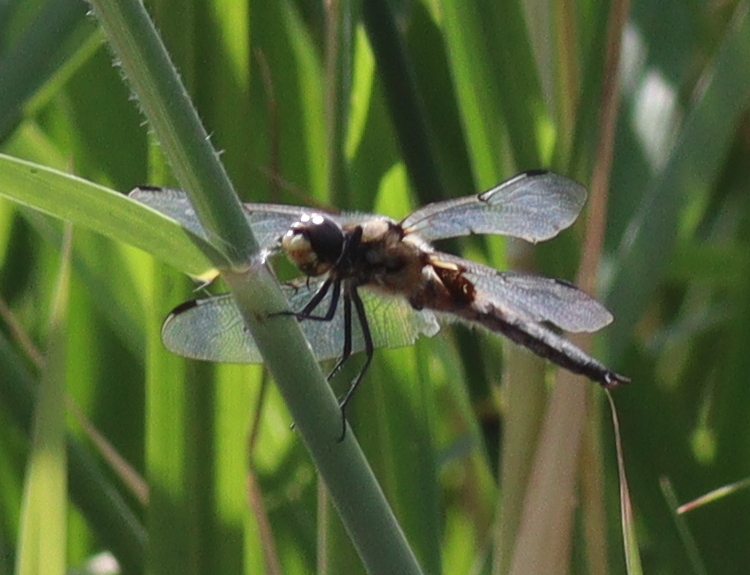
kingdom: Animalia
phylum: Arthropoda
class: Insecta
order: Odonata
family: Libellulidae
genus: Libellula
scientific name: Libellula quadrimaculata
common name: Four-spotted chaser
